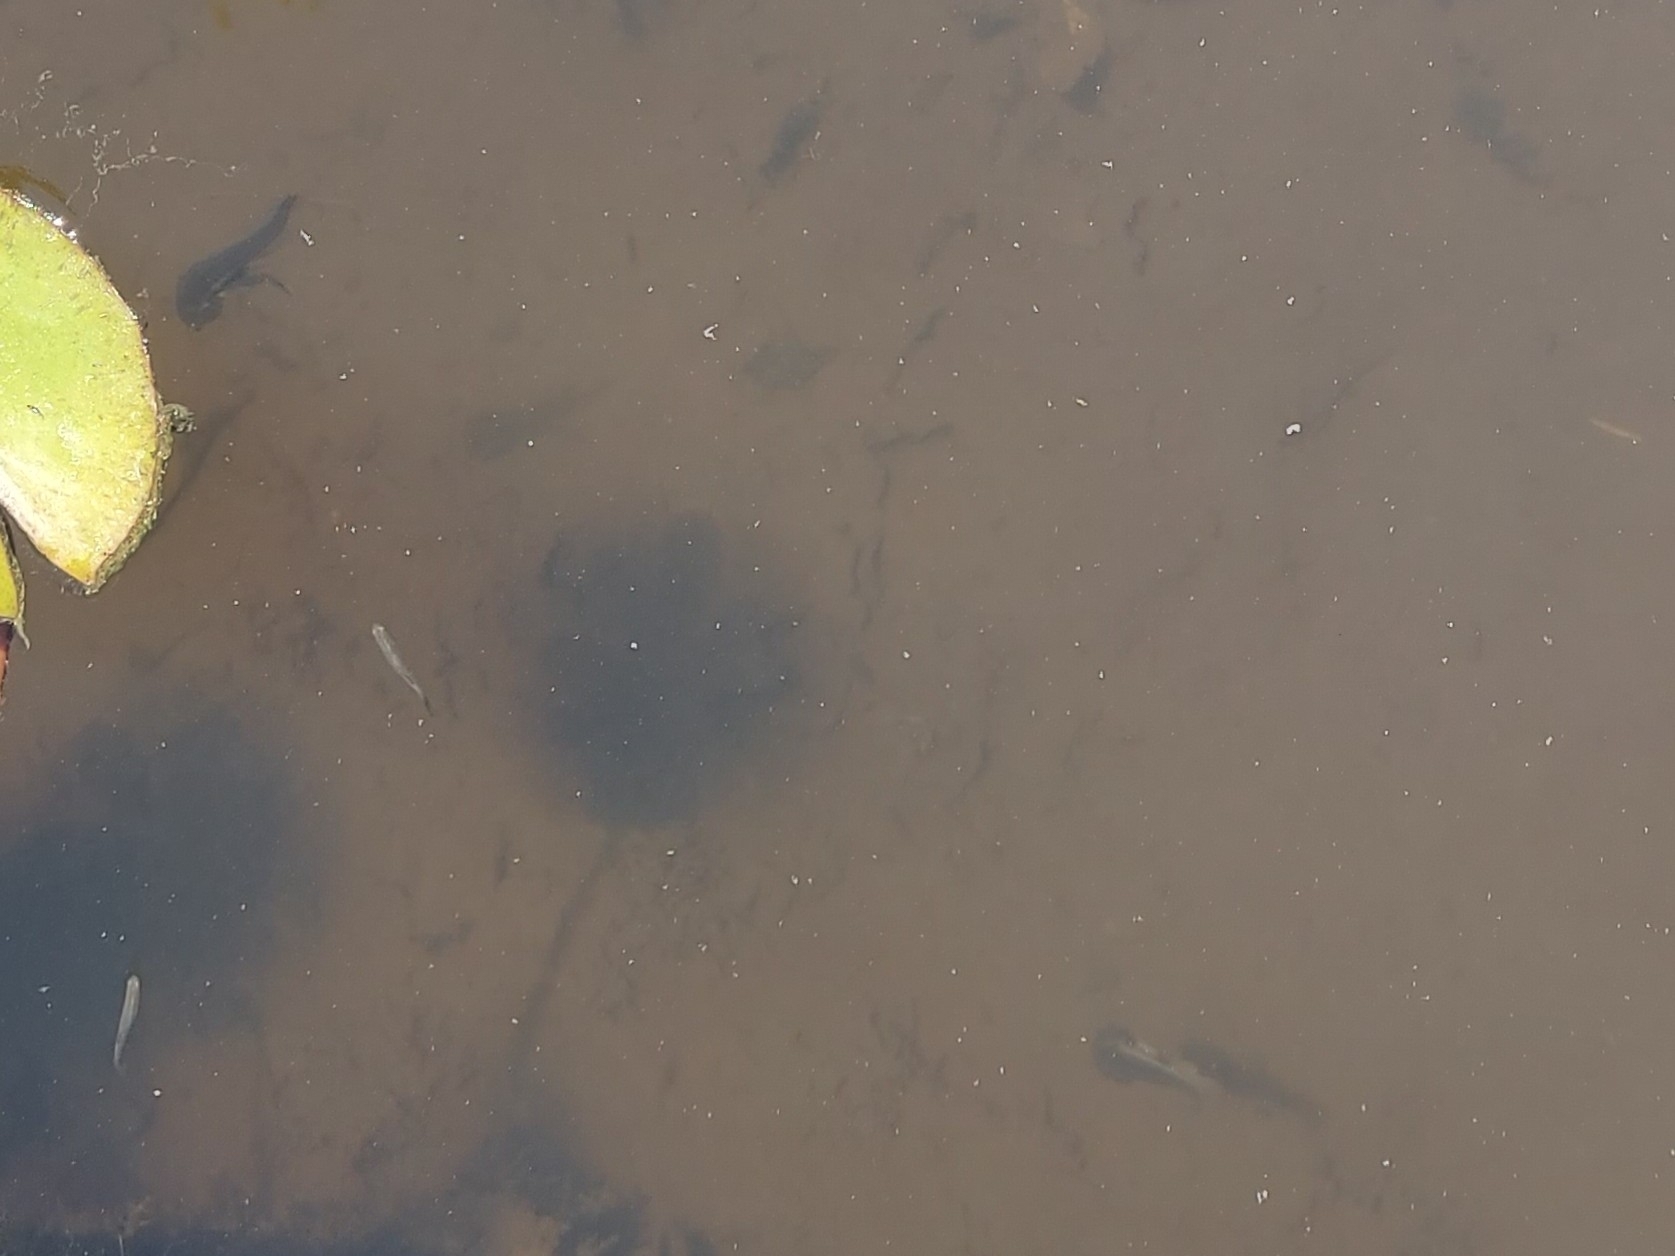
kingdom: Animalia
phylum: Chordata
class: Amphibia
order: Anura
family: Pipidae
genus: Xenopus
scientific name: Xenopus laevis
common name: African clawed frog
